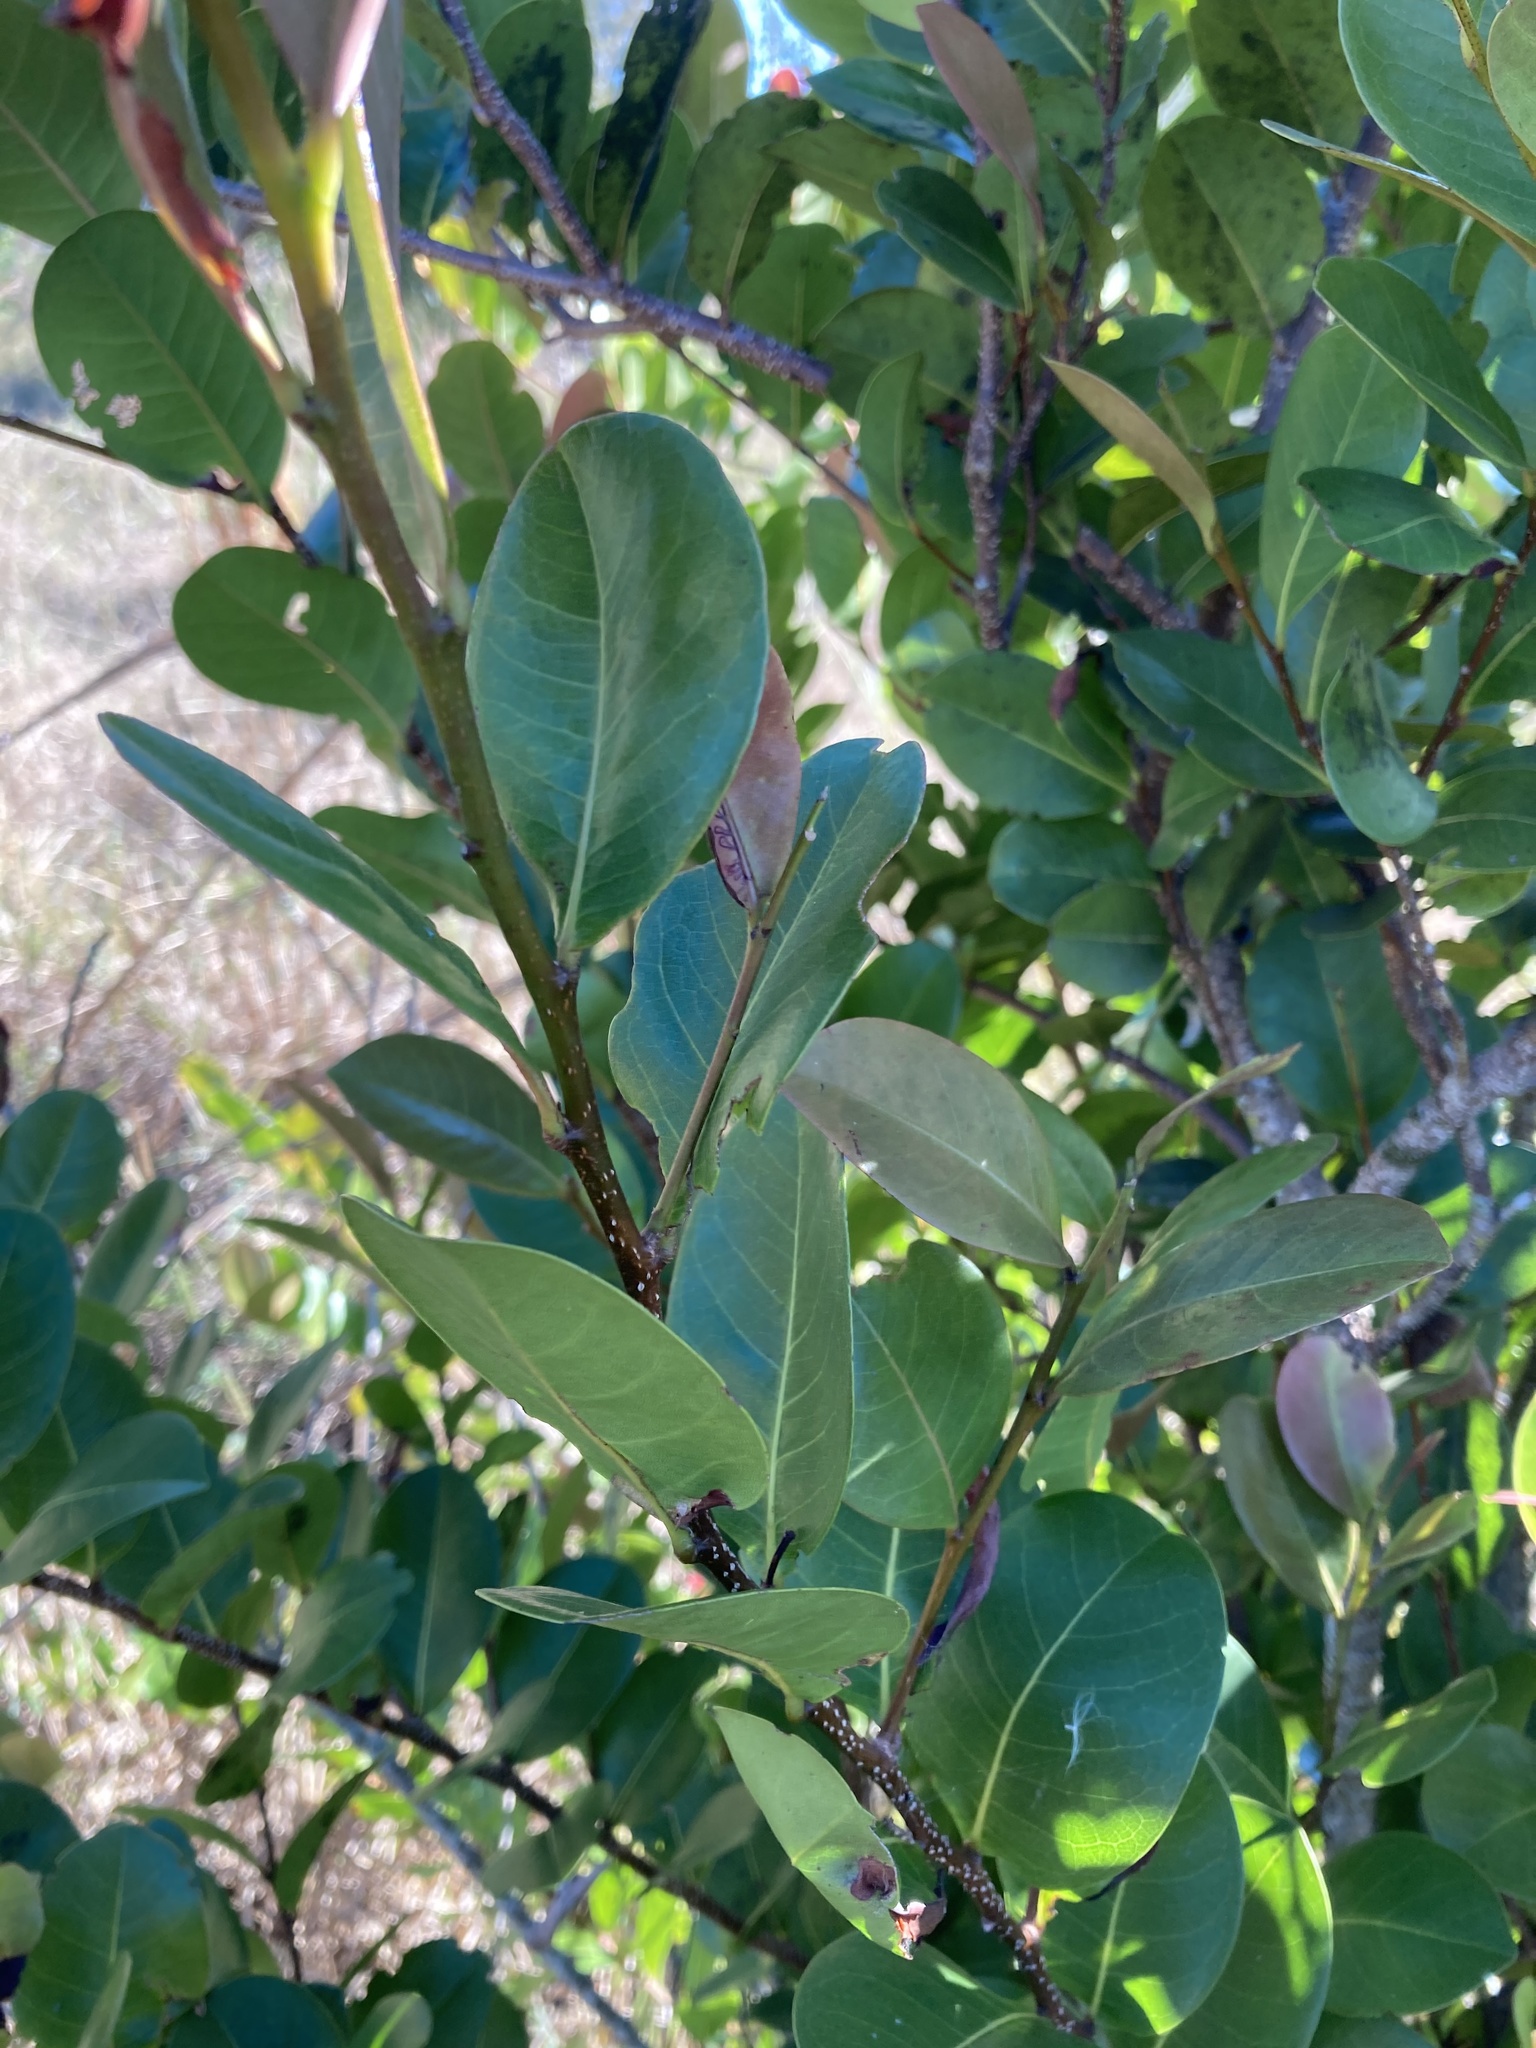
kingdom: Plantae
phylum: Tracheophyta
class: Magnoliopsida
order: Malpighiales
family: Chrysobalanaceae
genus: Chrysobalanus
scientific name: Chrysobalanus icaco
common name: Coco plum
